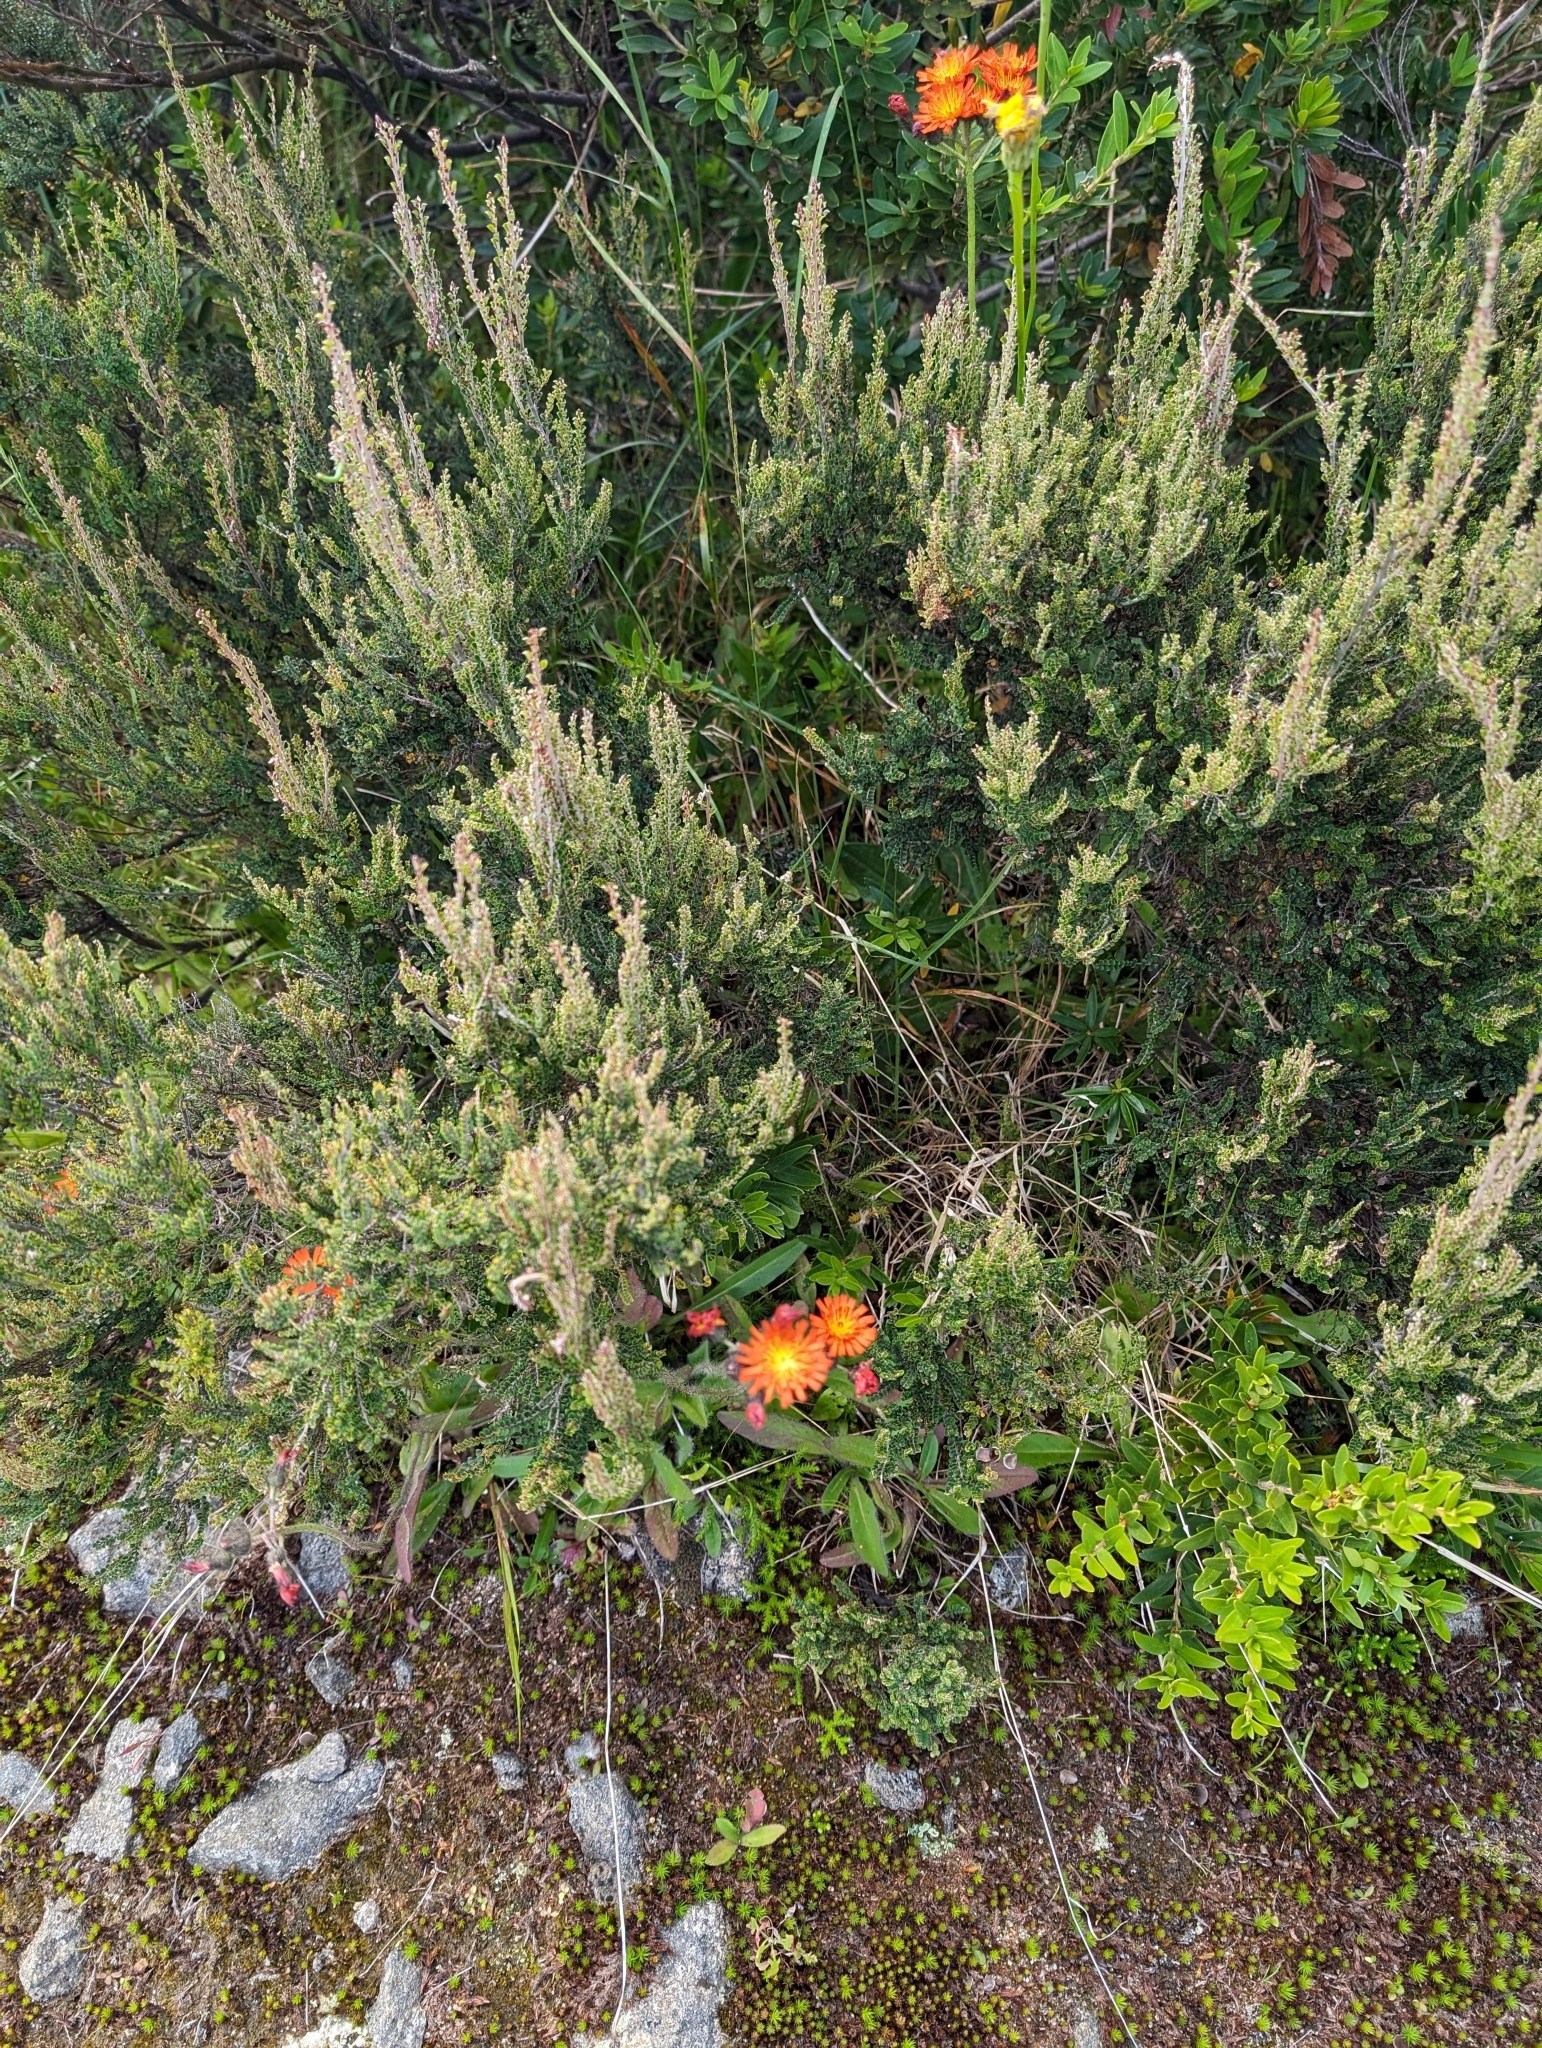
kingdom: Plantae
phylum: Tracheophyta
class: Magnoliopsida
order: Asterales
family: Asteraceae
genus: Pilosella
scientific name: Pilosella aurantiaca
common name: Fox-and-cubs
